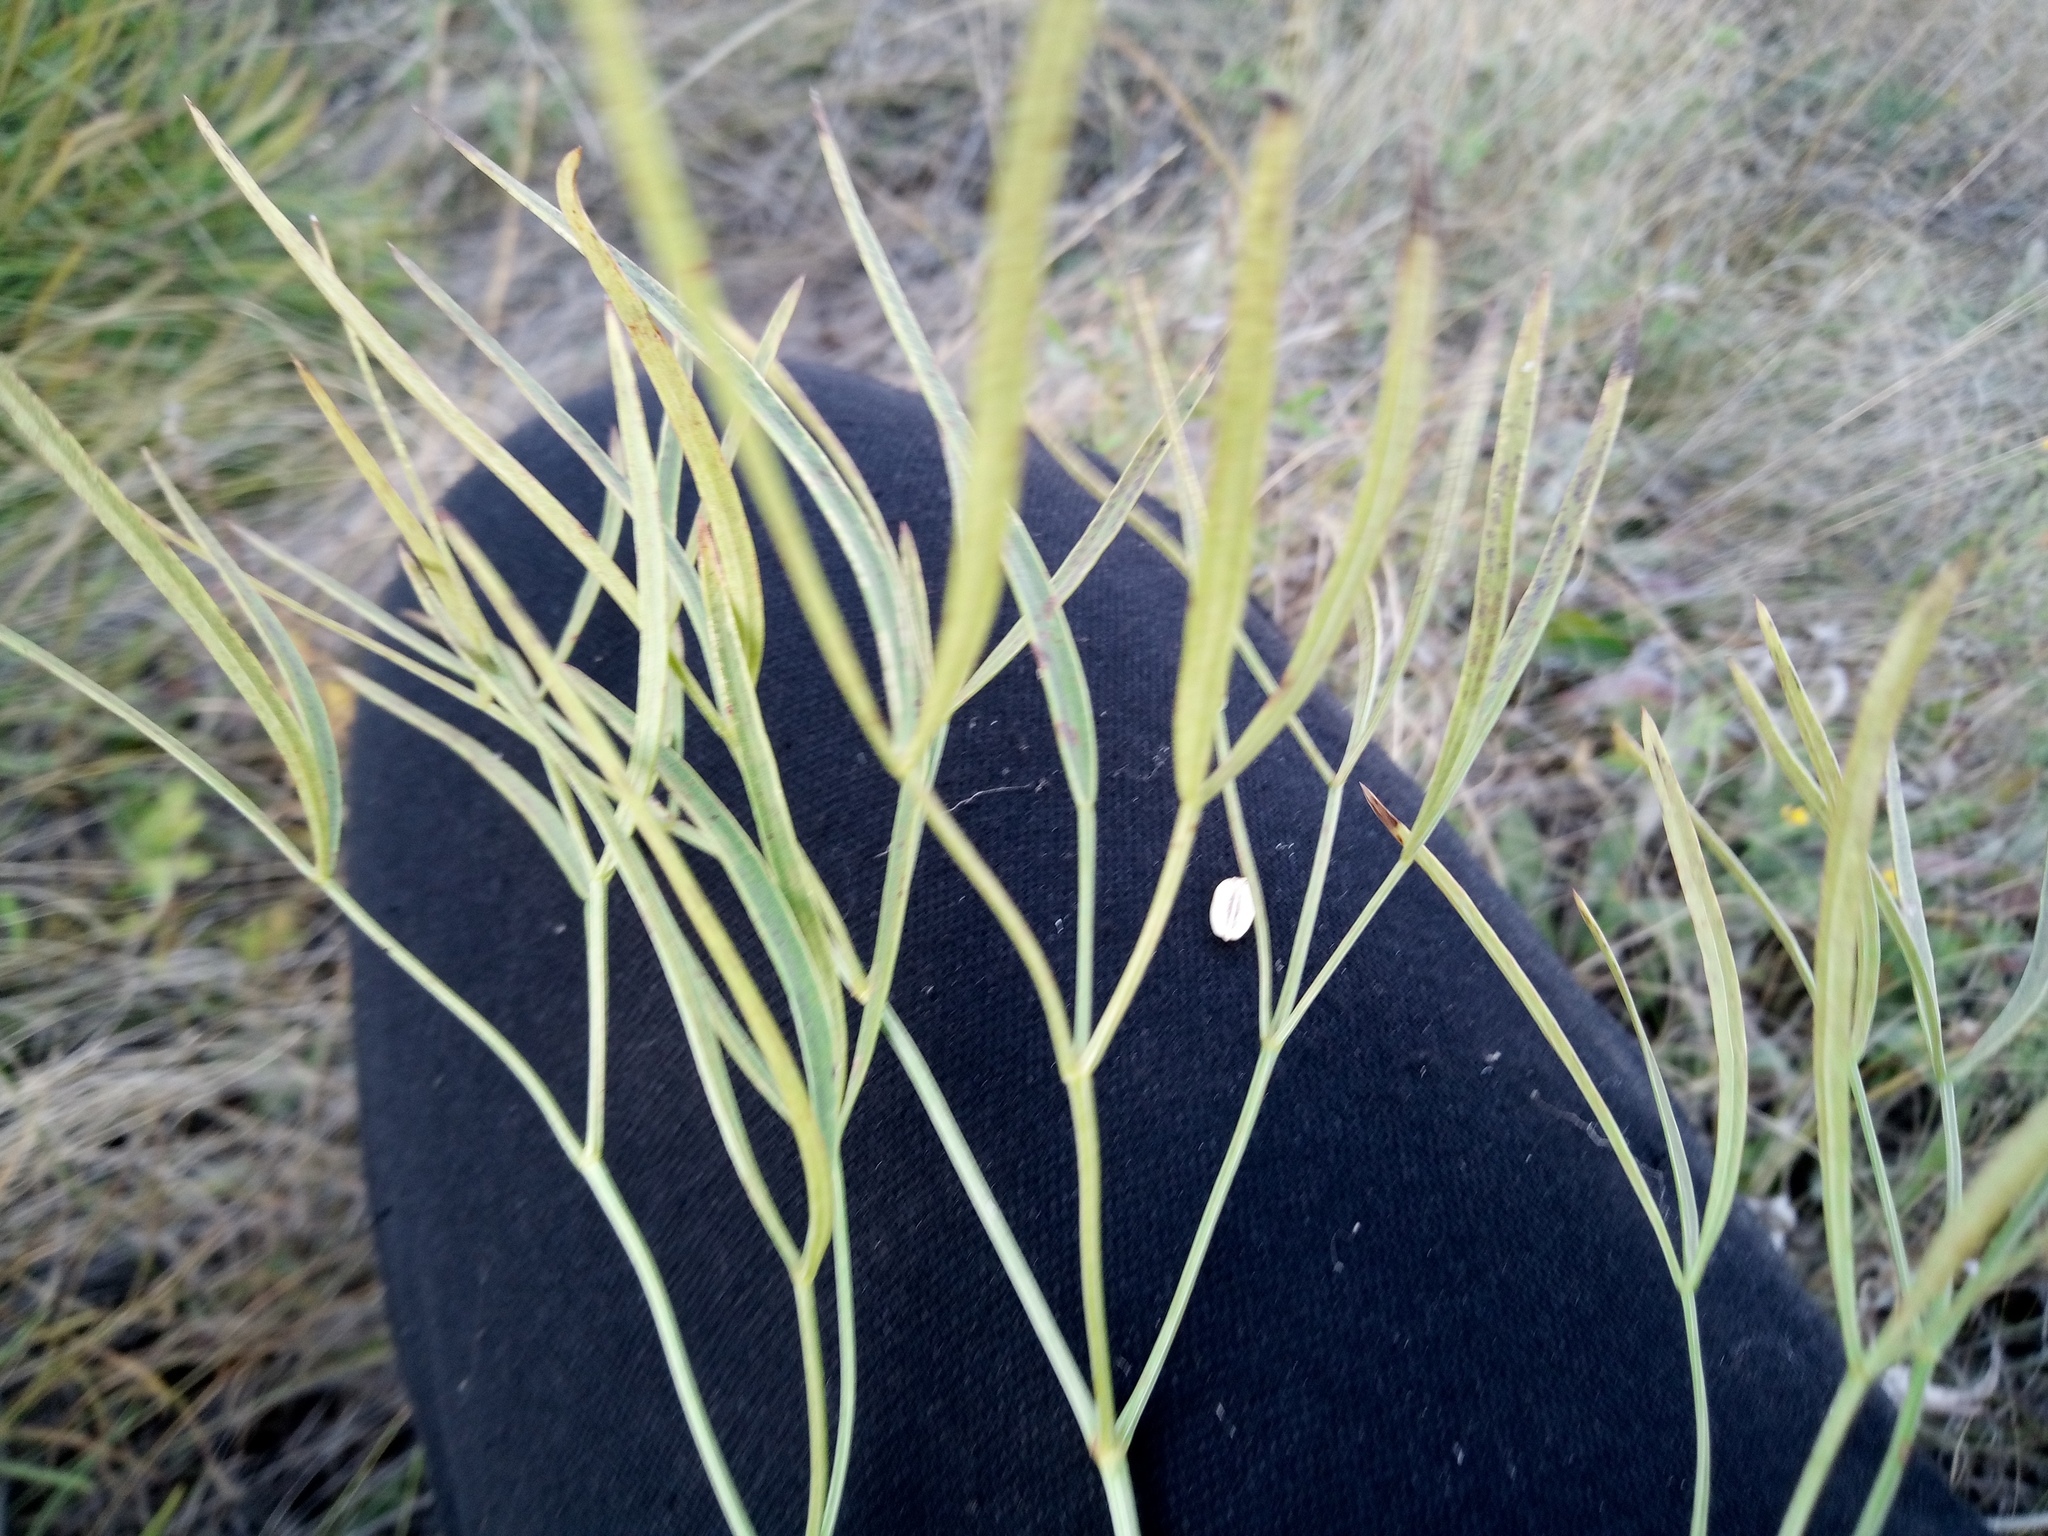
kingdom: Plantae
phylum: Tracheophyta
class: Magnoliopsida
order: Apiales
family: Apiaceae
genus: Peucedanum
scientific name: Peucedanum ruthenicum
